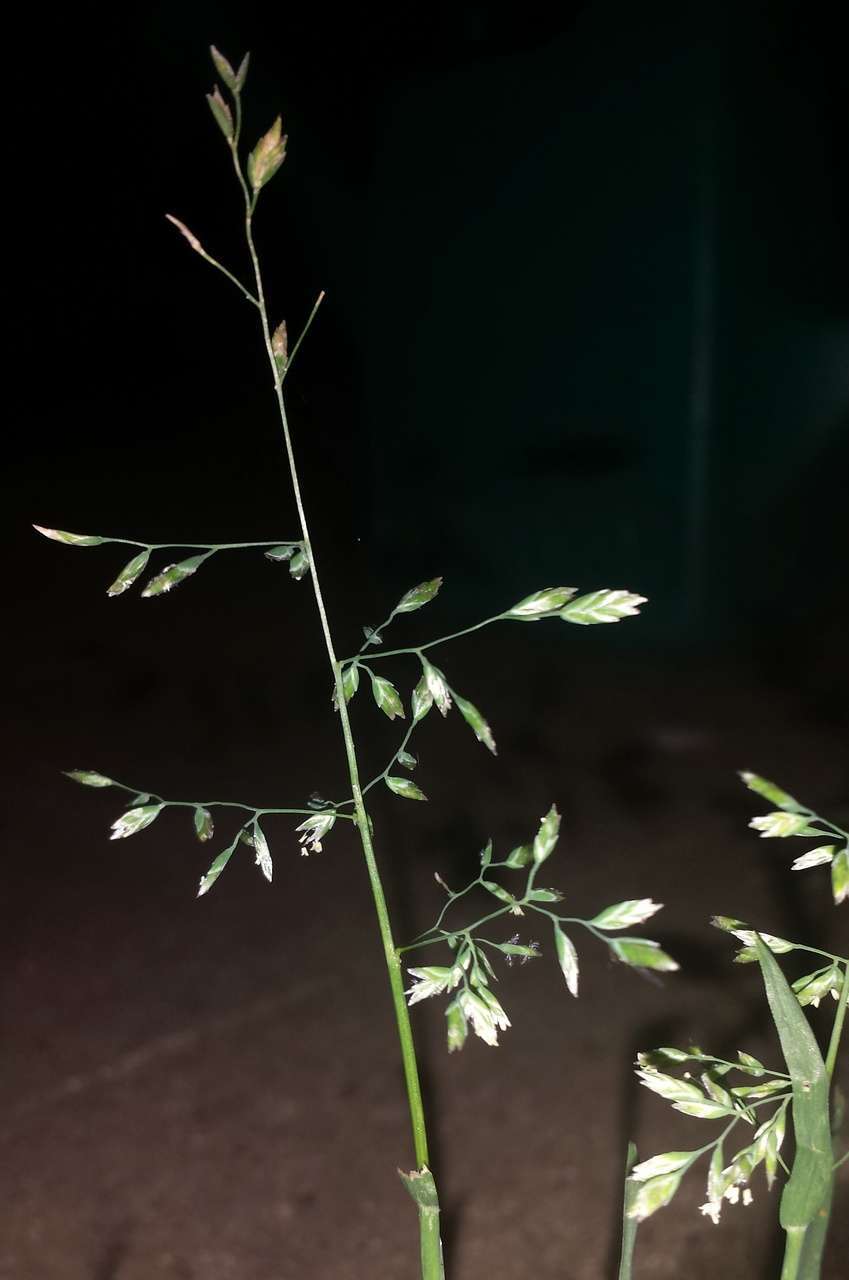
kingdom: Plantae
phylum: Tracheophyta
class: Liliopsida
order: Poales
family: Poaceae
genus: Poa
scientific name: Poa annua
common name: Annual bluegrass
